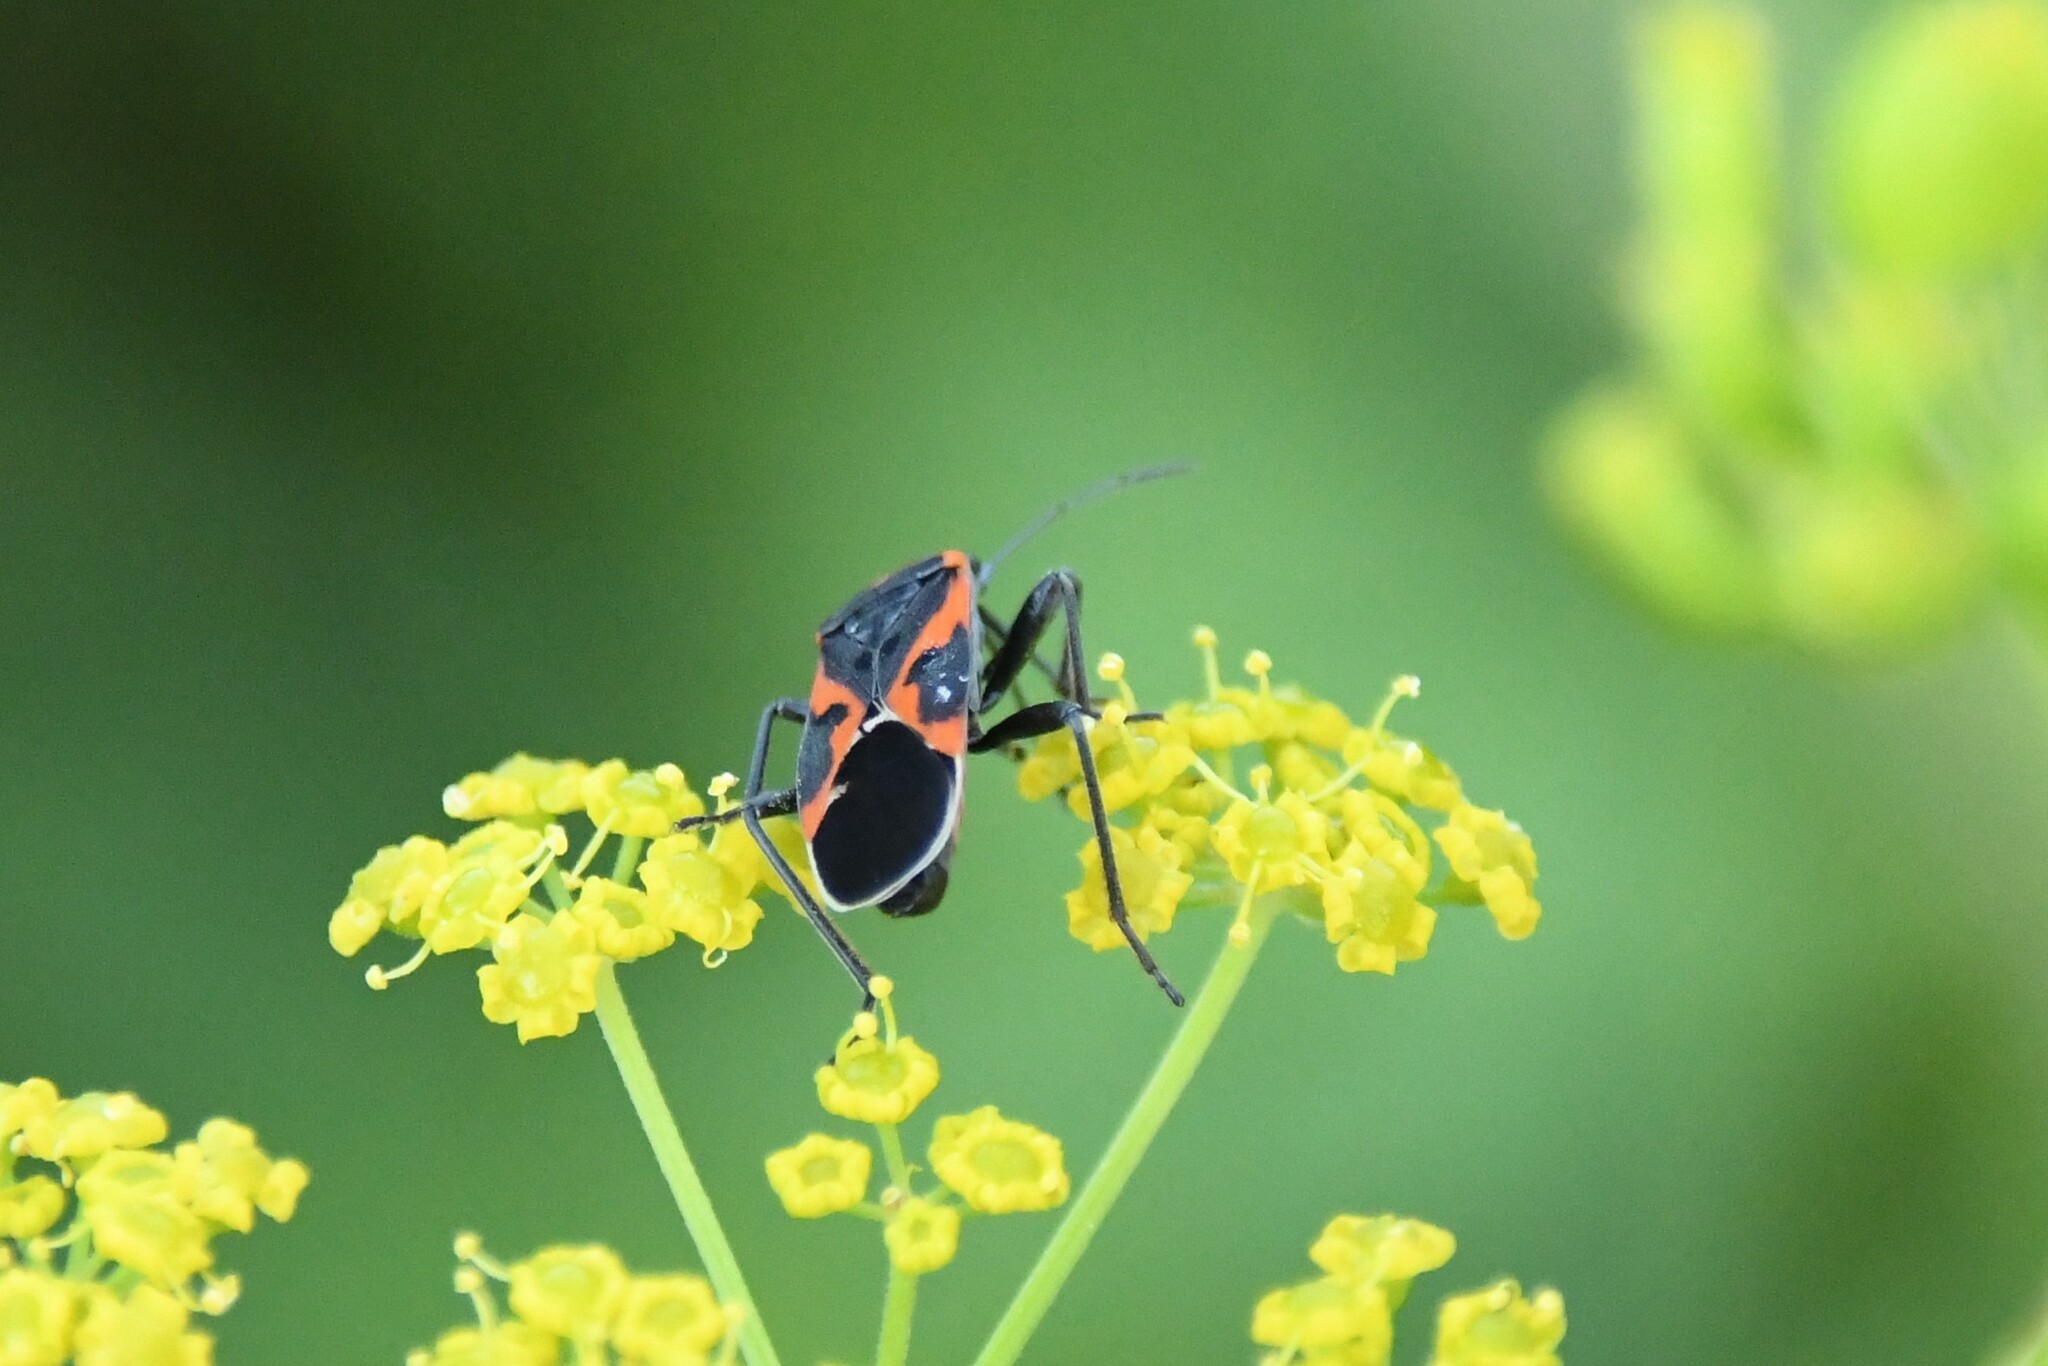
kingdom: Animalia
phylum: Arthropoda
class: Insecta
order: Hemiptera
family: Lygaeidae
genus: Lygaeus
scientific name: Lygaeus kalmii
